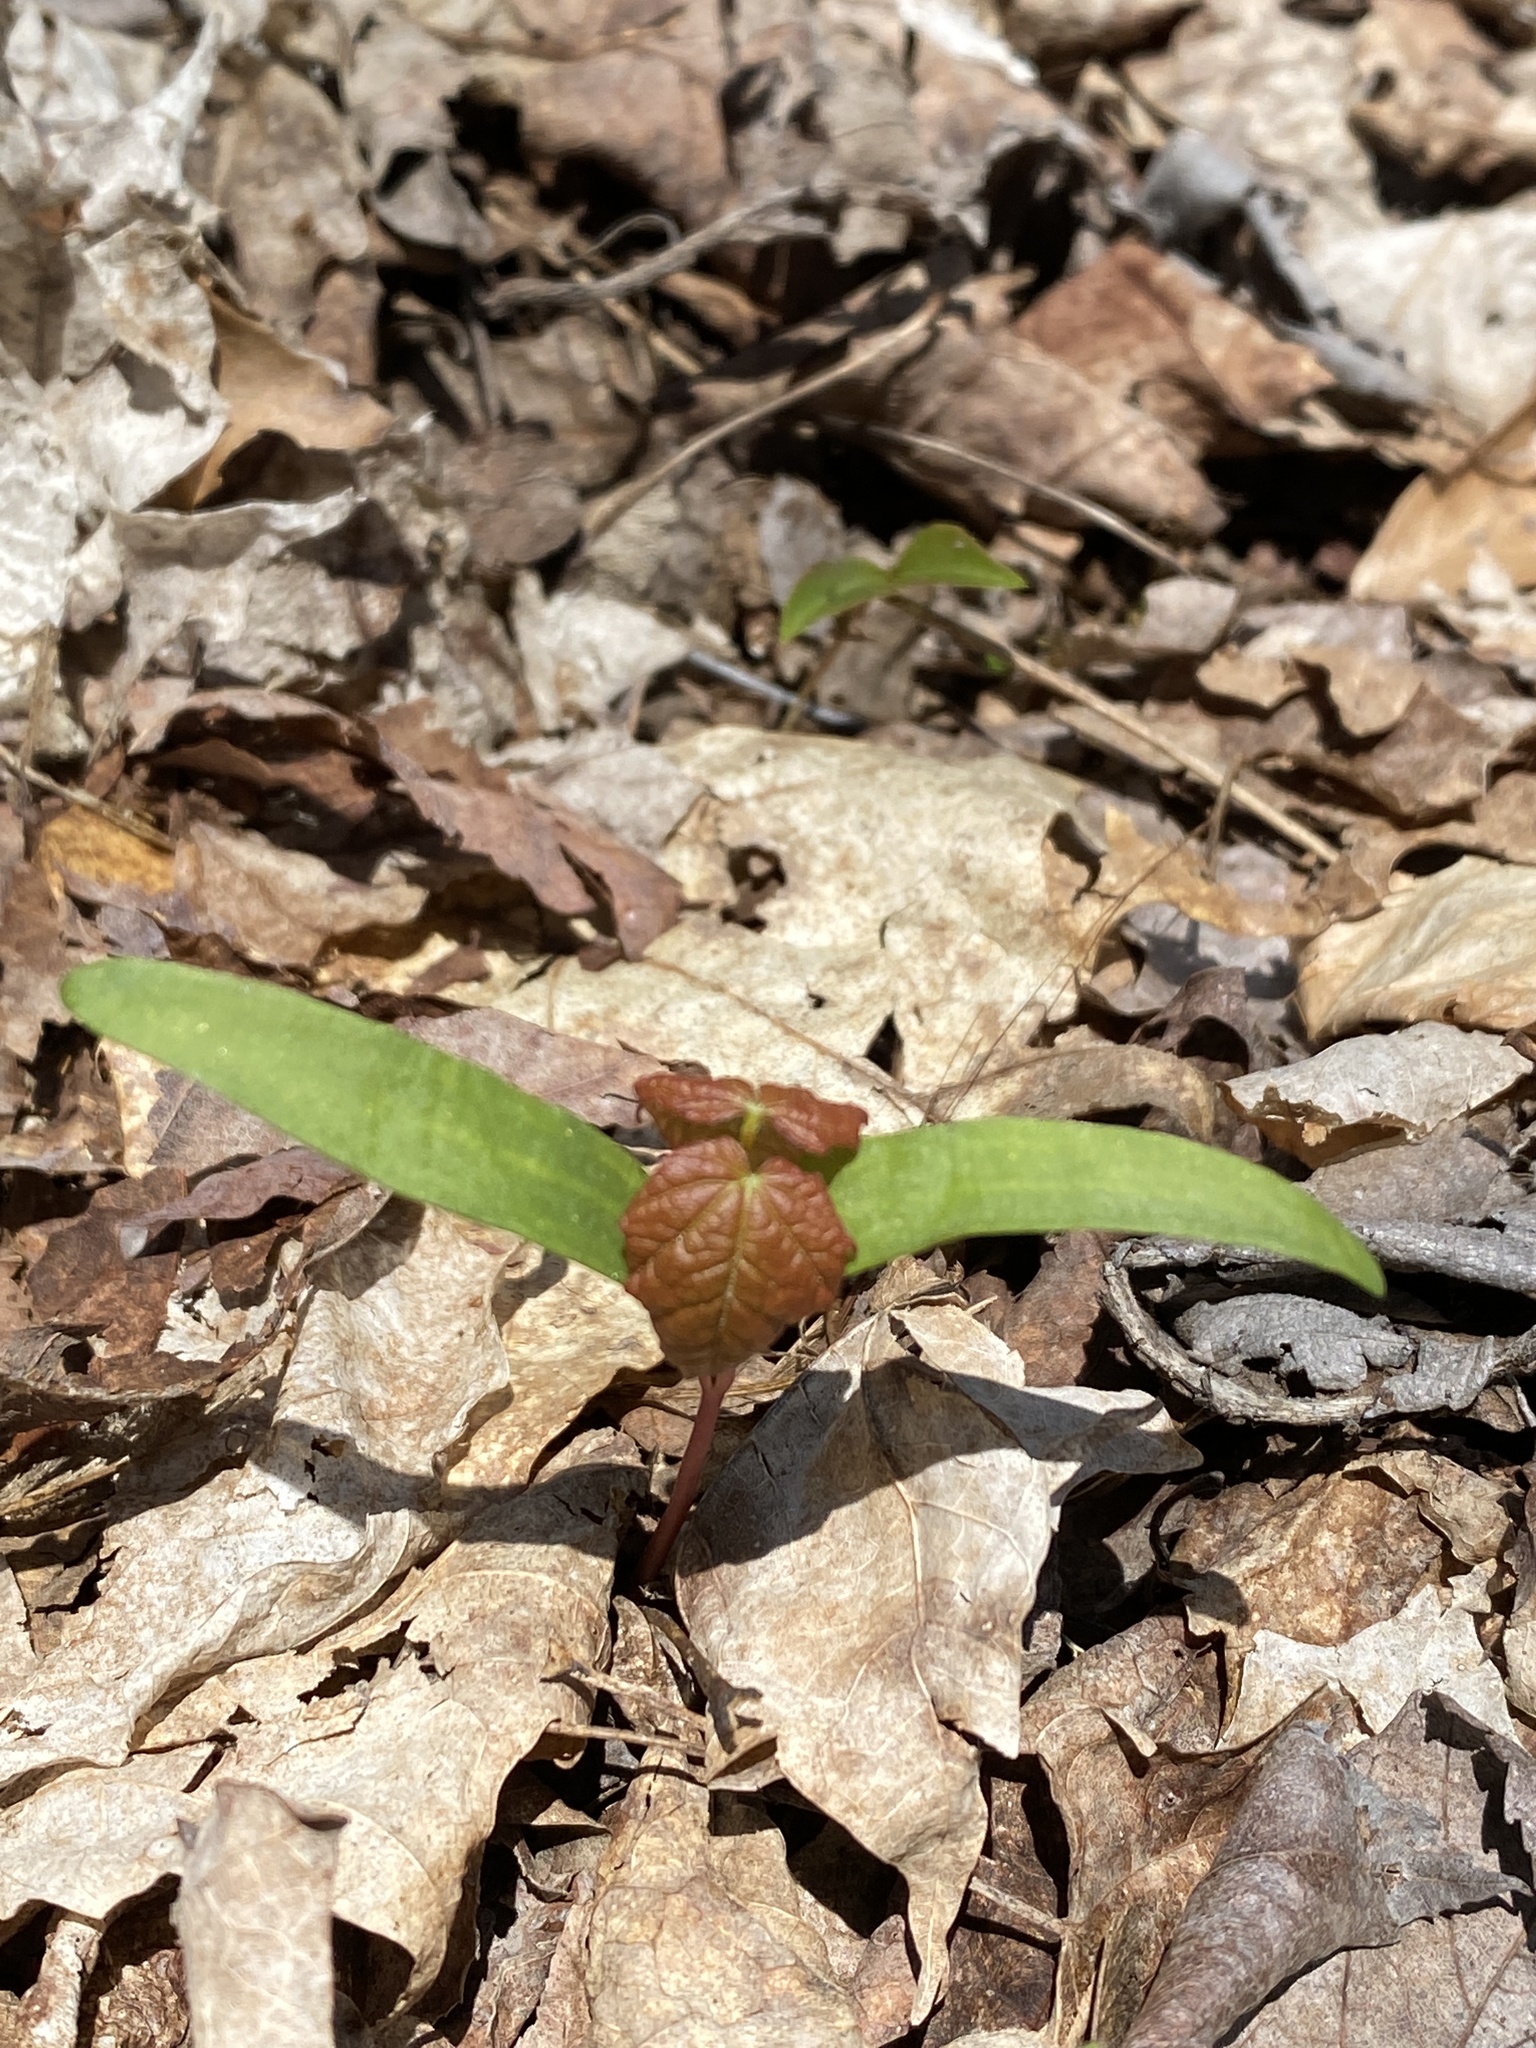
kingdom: Plantae
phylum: Tracheophyta
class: Magnoliopsida
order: Sapindales
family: Sapindaceae
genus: Acer
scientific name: Acer saccharum
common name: Sugar maple
